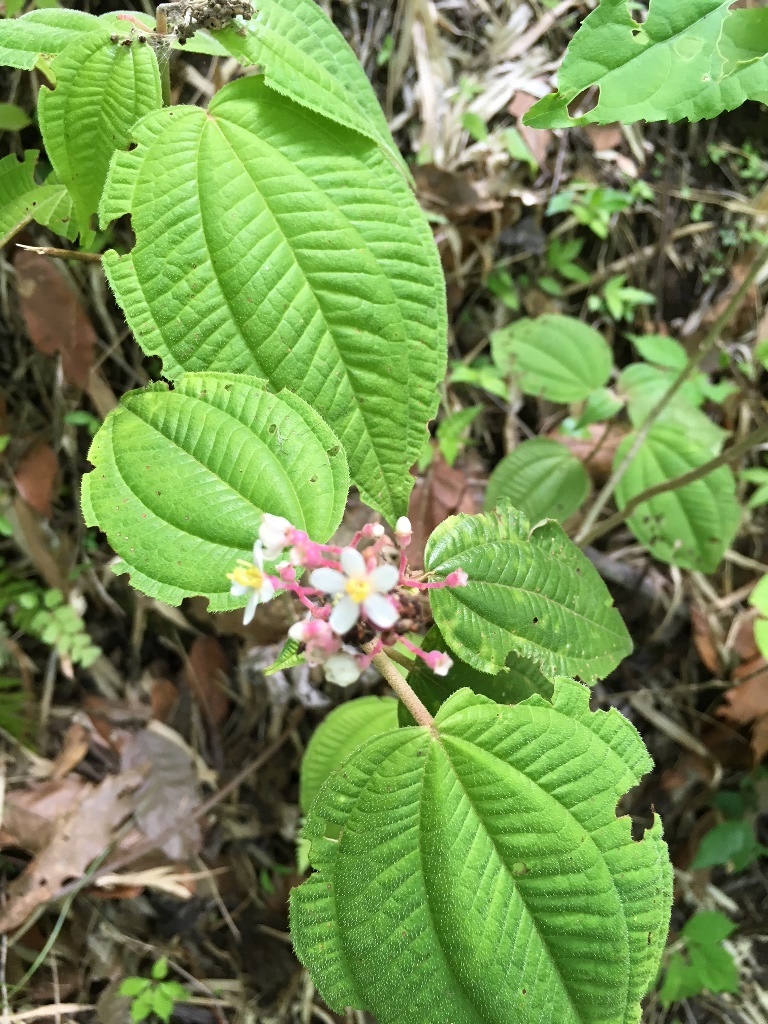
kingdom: Plantae
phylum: Tracheophyta
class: Magnoliopsida
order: Myrtales
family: Melastomataceae
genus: Miconia
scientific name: Miconia guatemalensis
